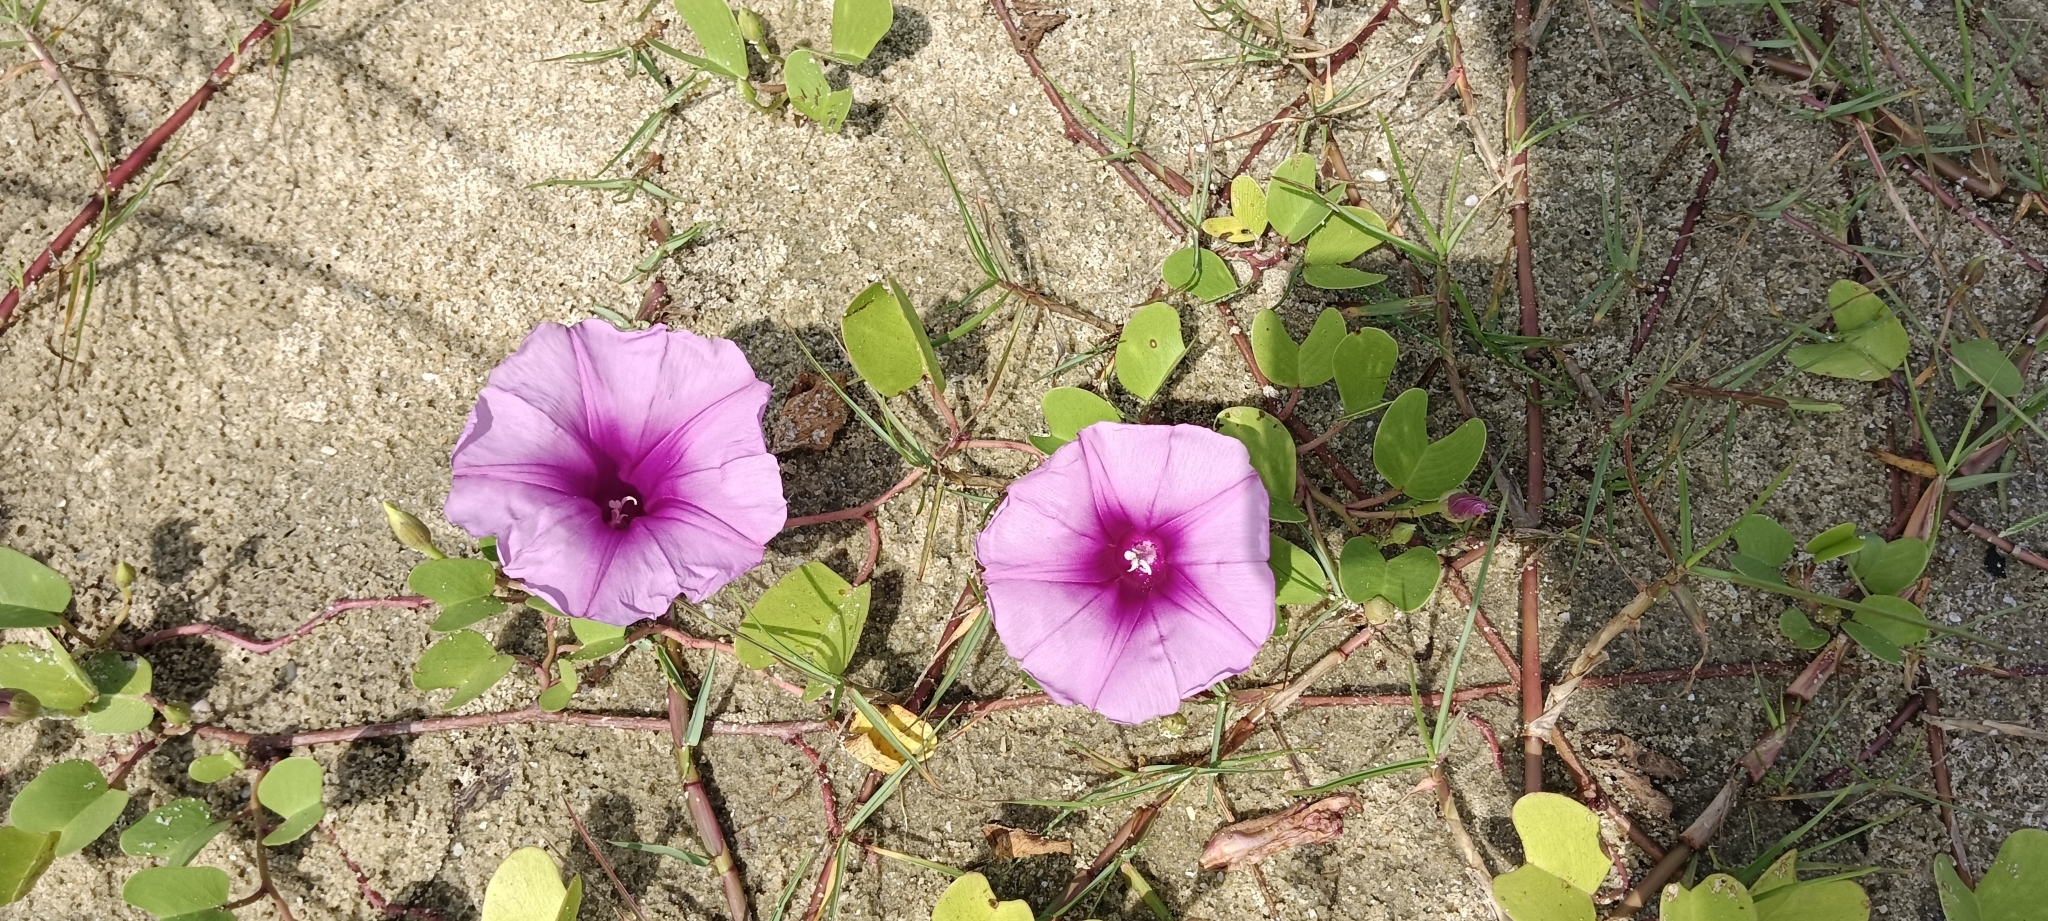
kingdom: Plantae
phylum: Tracheophyta
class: Magnoliopsida
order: Solanales
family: Convolvulaceae
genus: Ipomoea
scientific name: Ipomoea pes-caprae
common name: Beach morning glory
